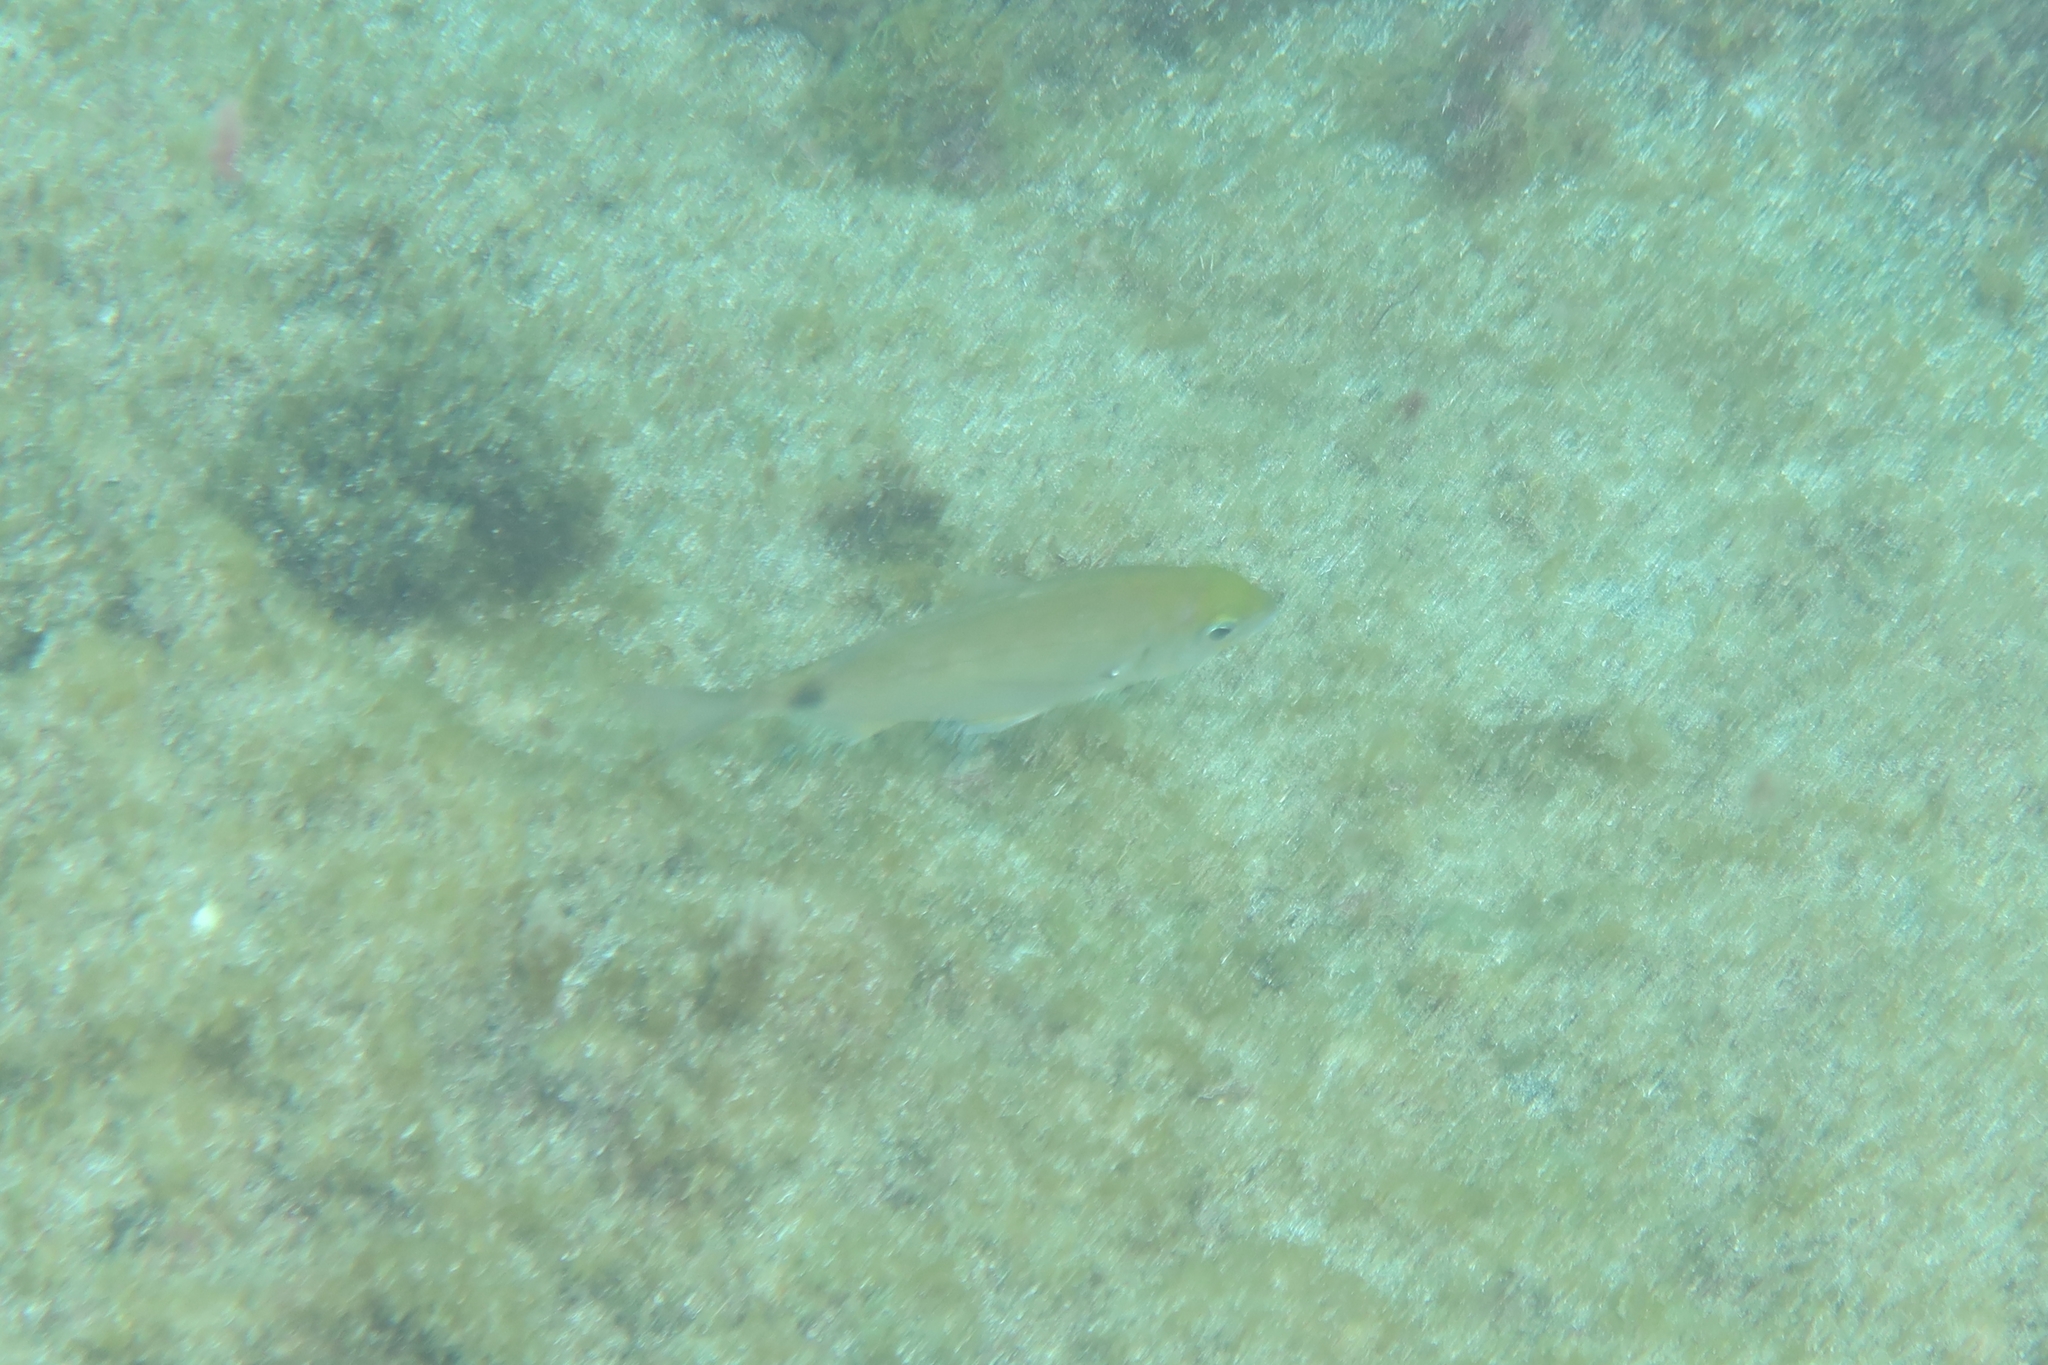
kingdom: Animalia
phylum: Chordata
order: Perciformes
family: Sparidae
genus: Diplodus
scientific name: Diplodus annularis
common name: Annular seabream
